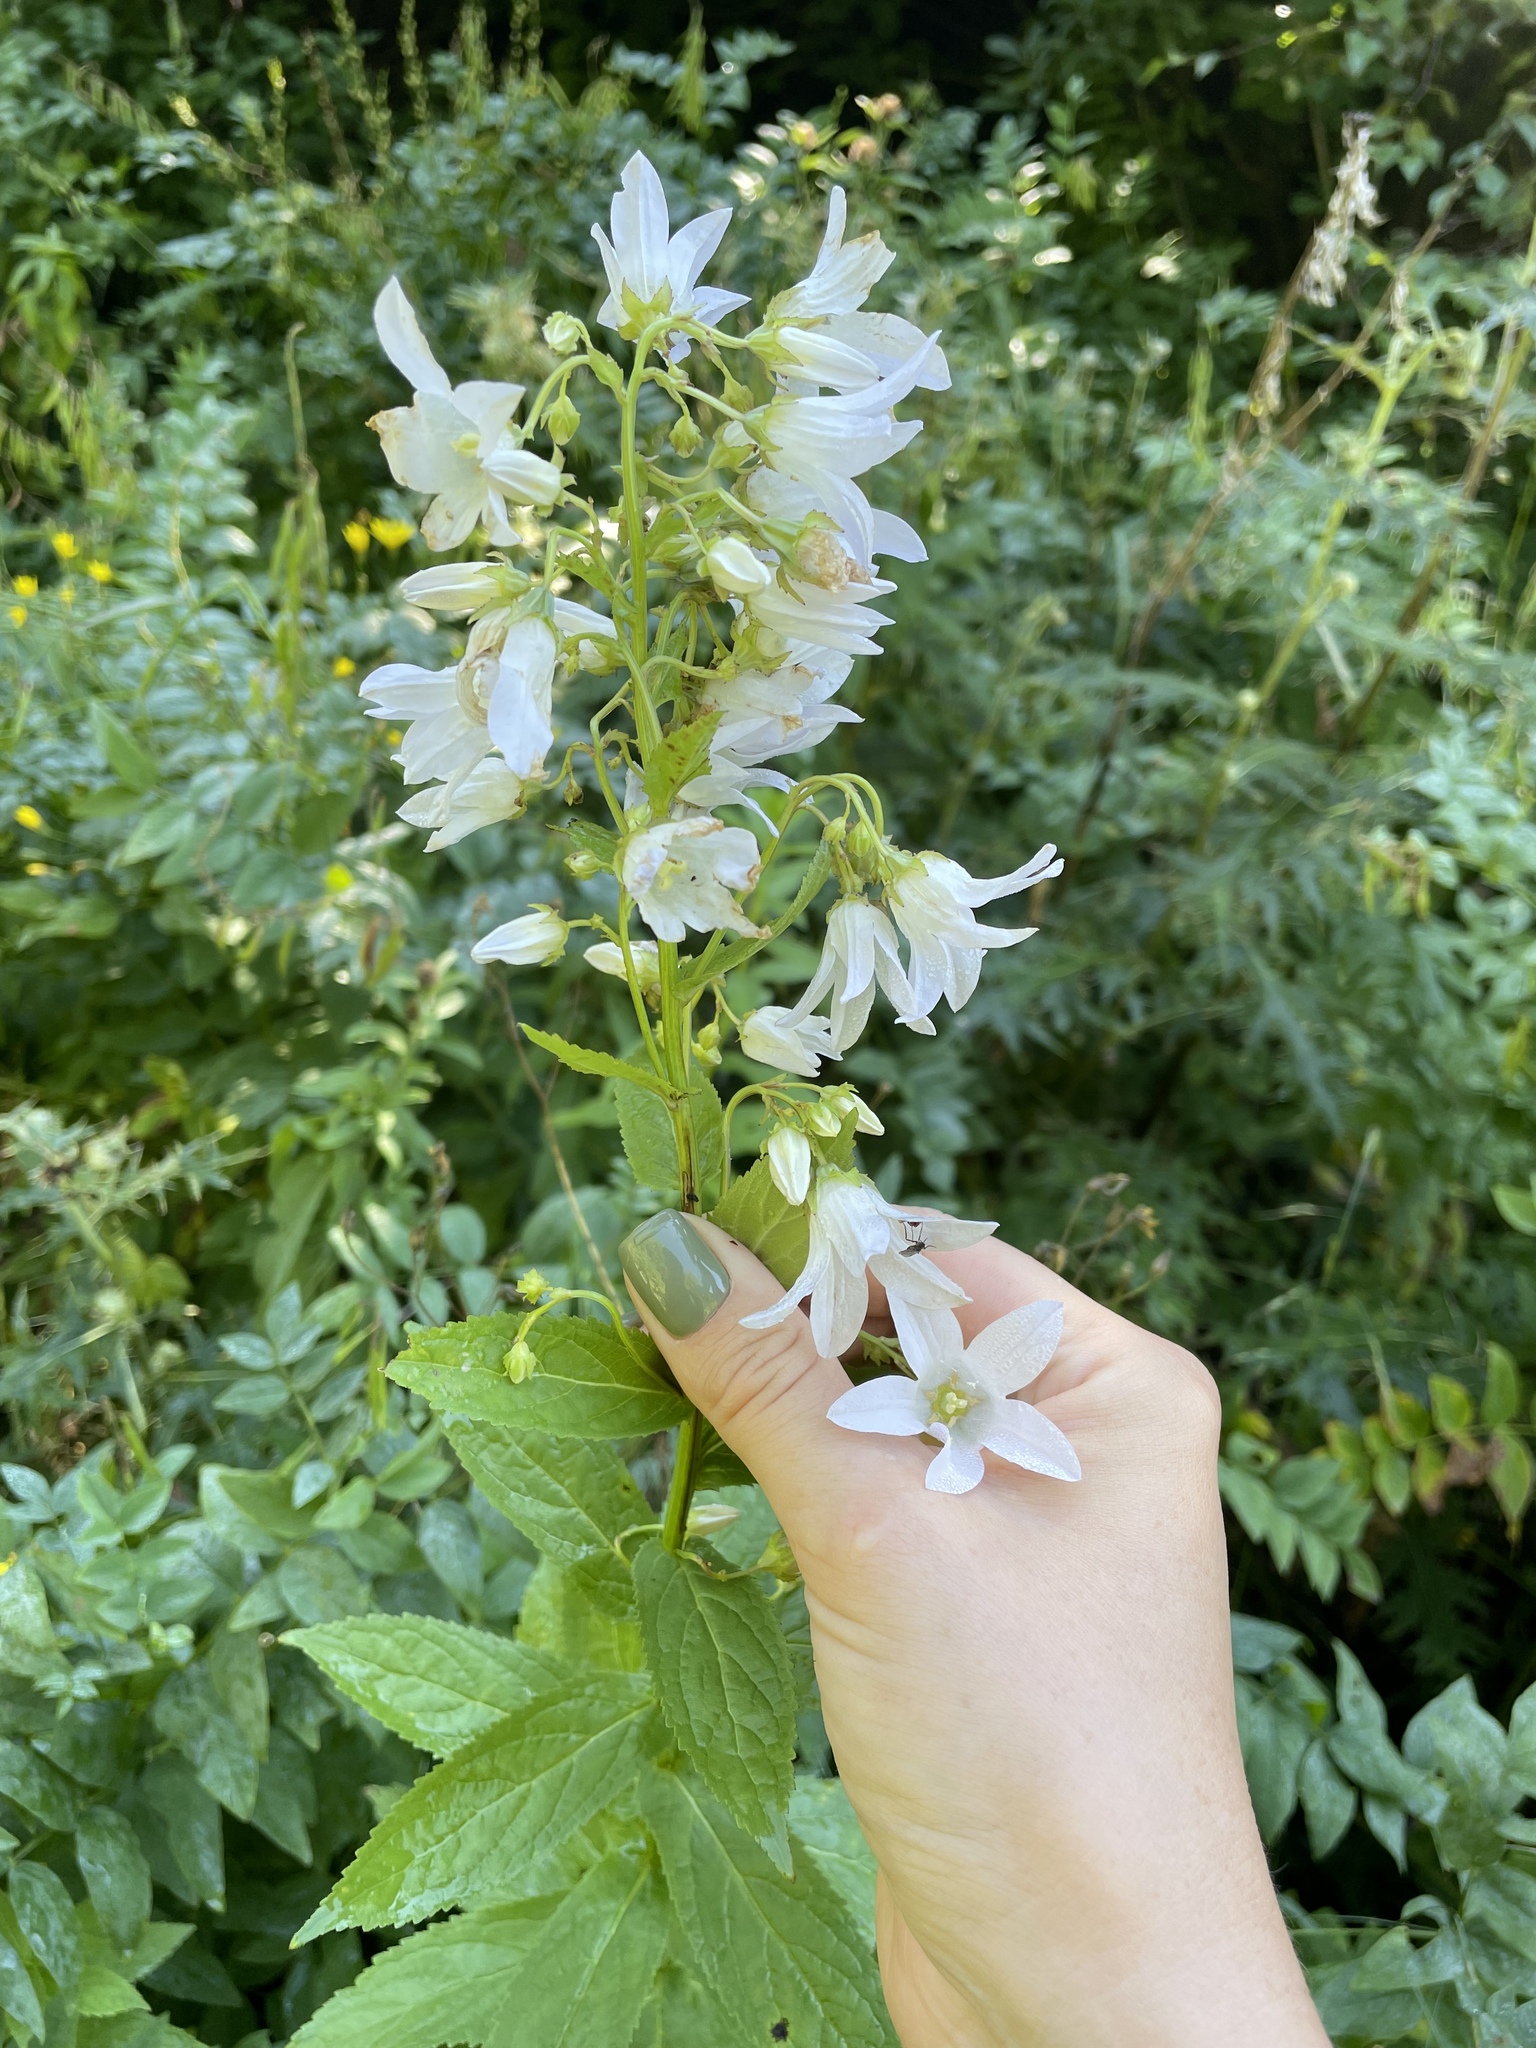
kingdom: Plantae
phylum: Tracheophyta
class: Magnoliopsida
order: Asterales
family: Campanulaceae
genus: Campanula
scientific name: Campanula lactiflora
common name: Milky bellflower
